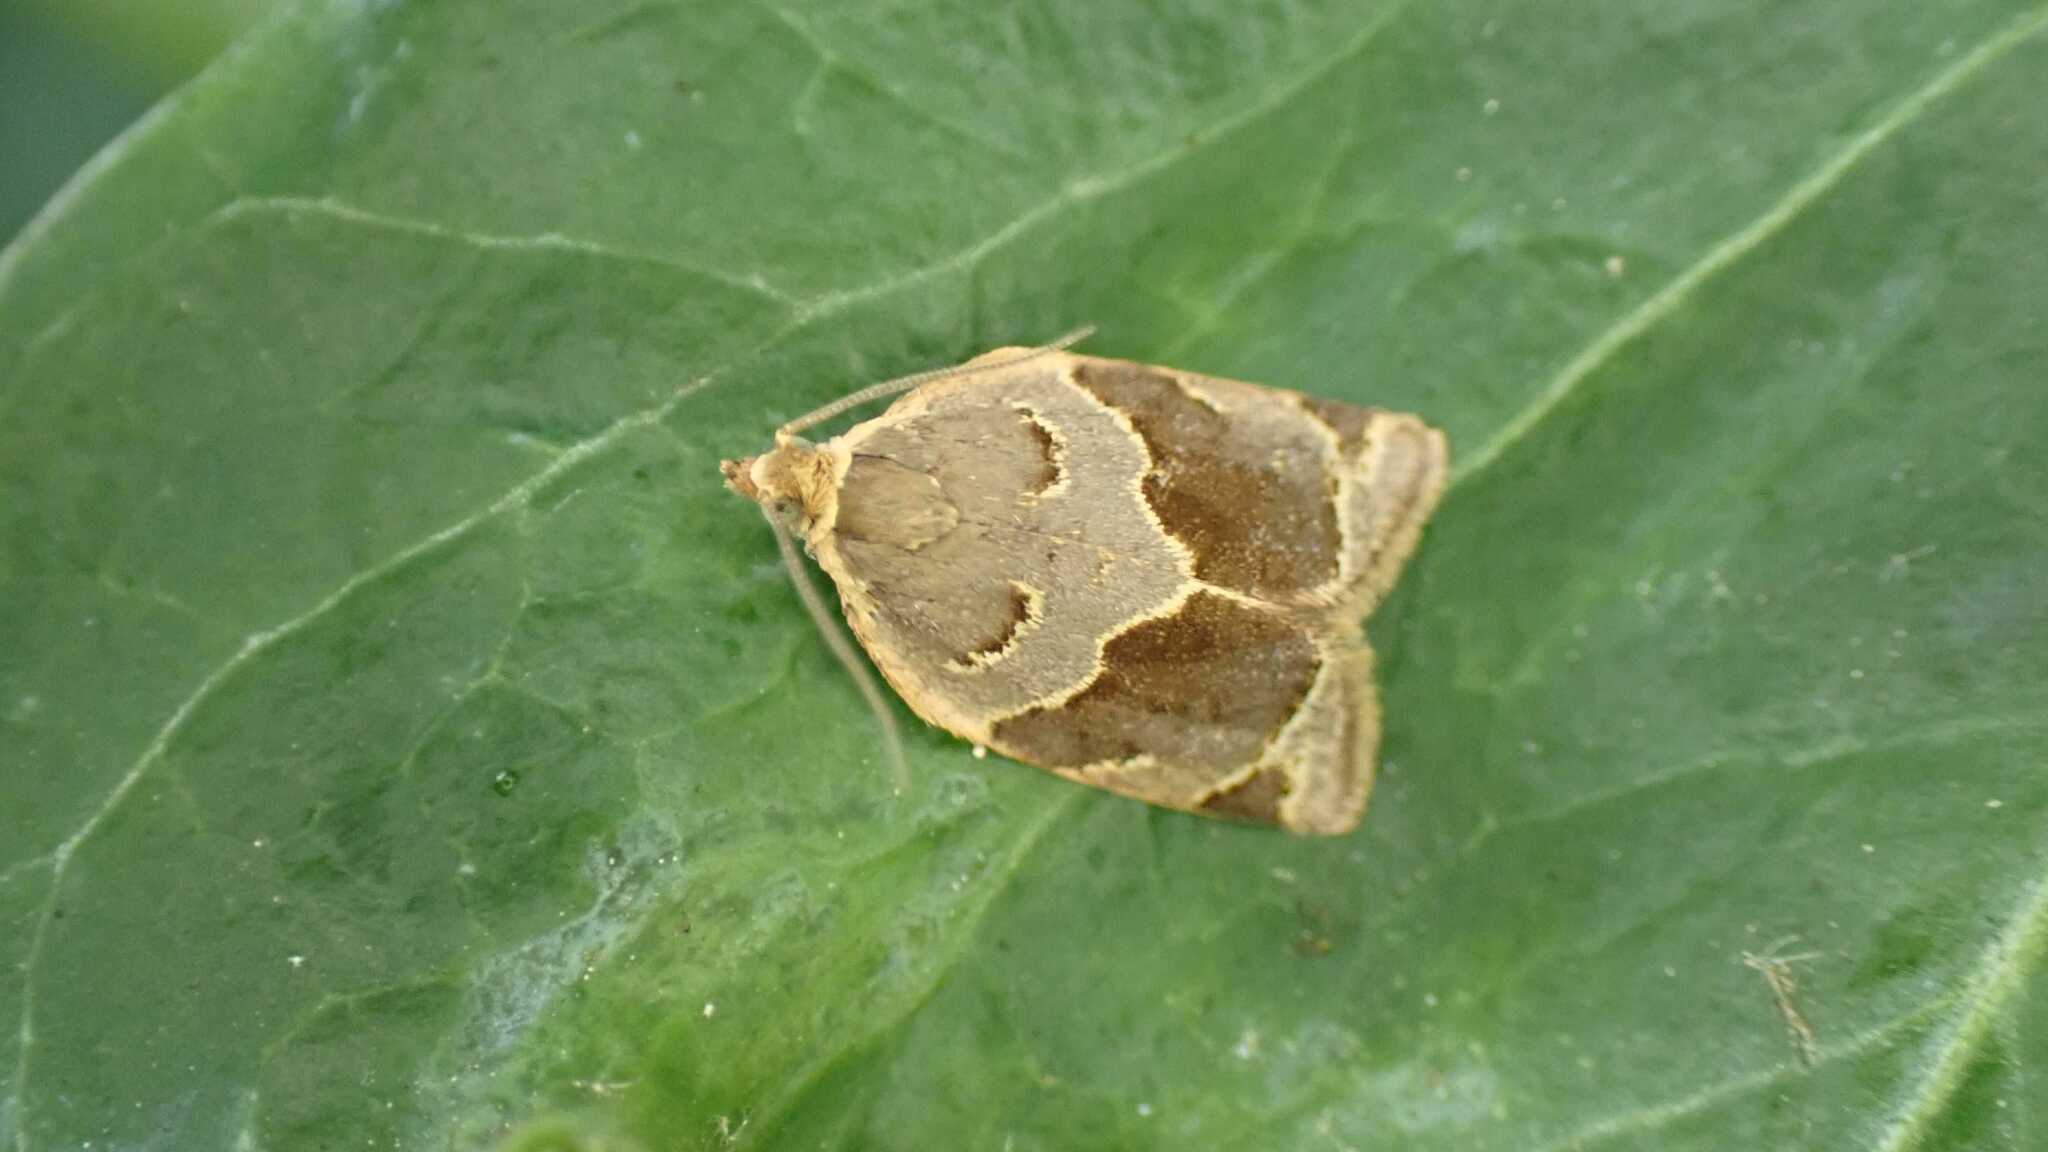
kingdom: Animalia
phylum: Arthropoda
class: Insecta
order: Lepidoptera
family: Tortricidae
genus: Clepsis
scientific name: Clepsis dumicolana
